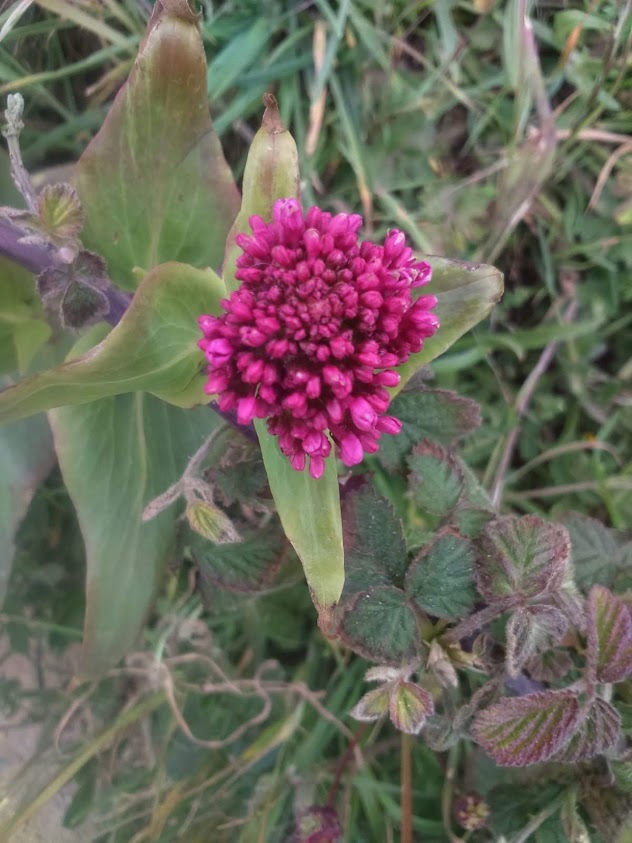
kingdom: Plantae
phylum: Tracheophyta
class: Magnoliopsida
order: Dipsacales
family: Caprifoliaceae
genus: Centranthus
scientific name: Centranthus ruber
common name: Red valerian
